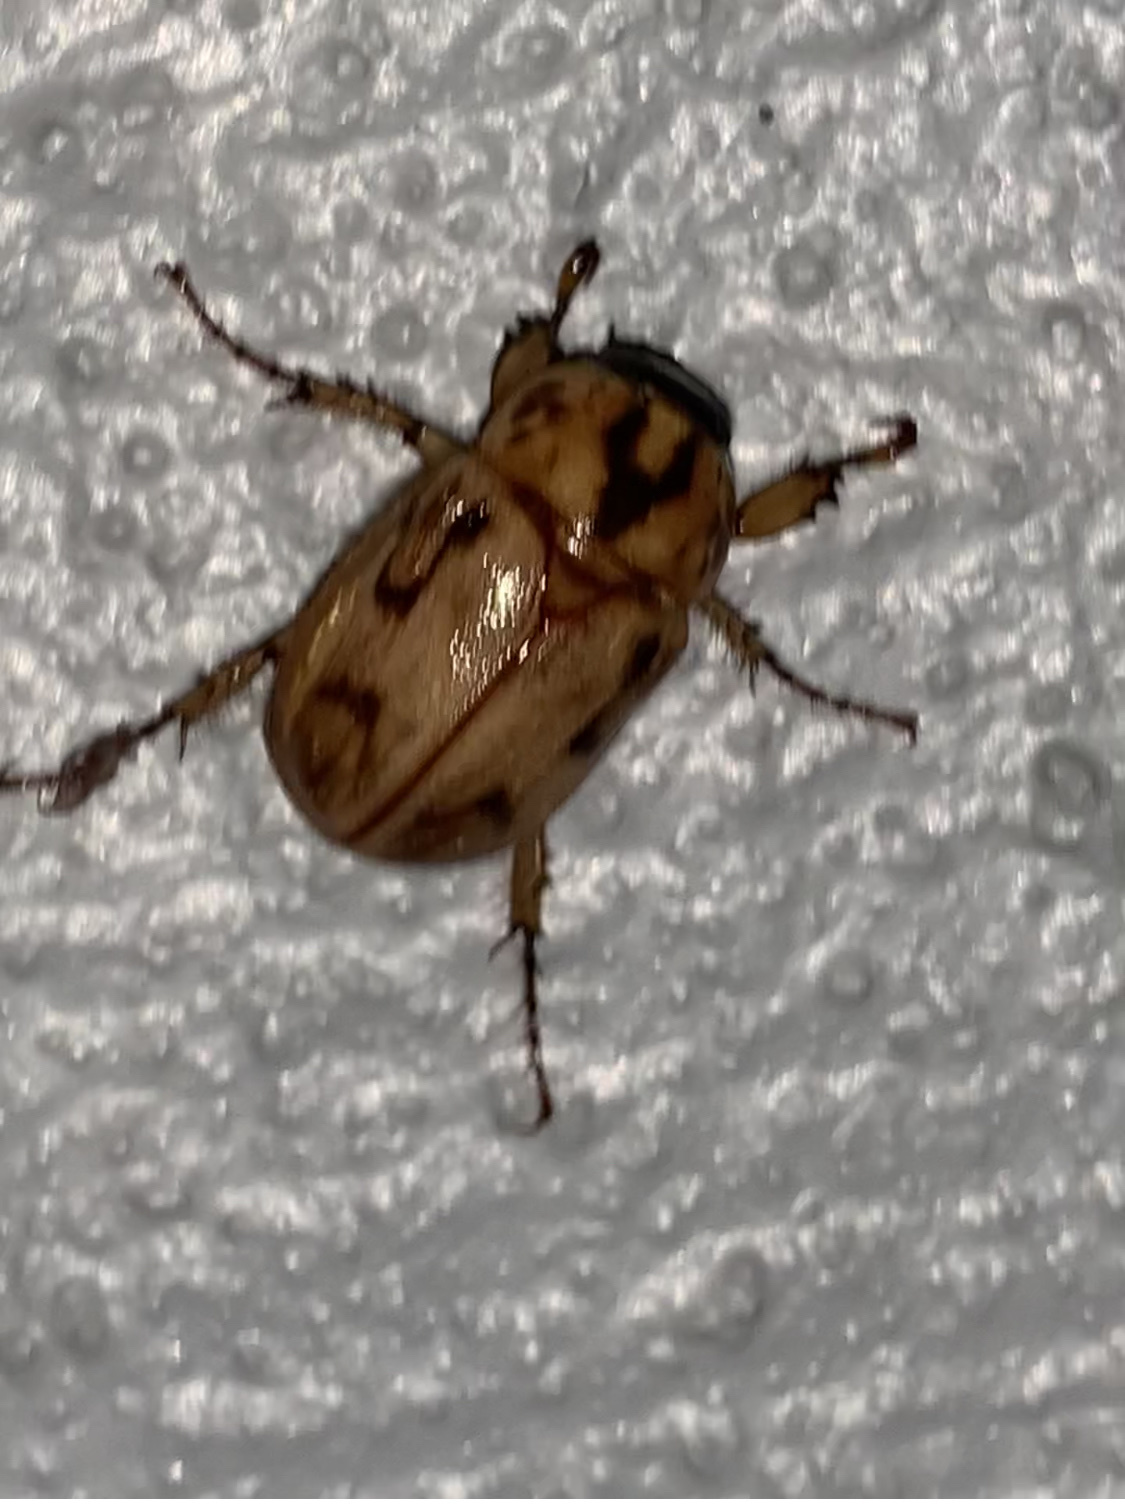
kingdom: Animalia
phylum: Arthropoda
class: Insecta
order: Coleoptera
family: Scarabaeidae
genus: Cyclocephala
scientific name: Cyclocephala signaticollis
